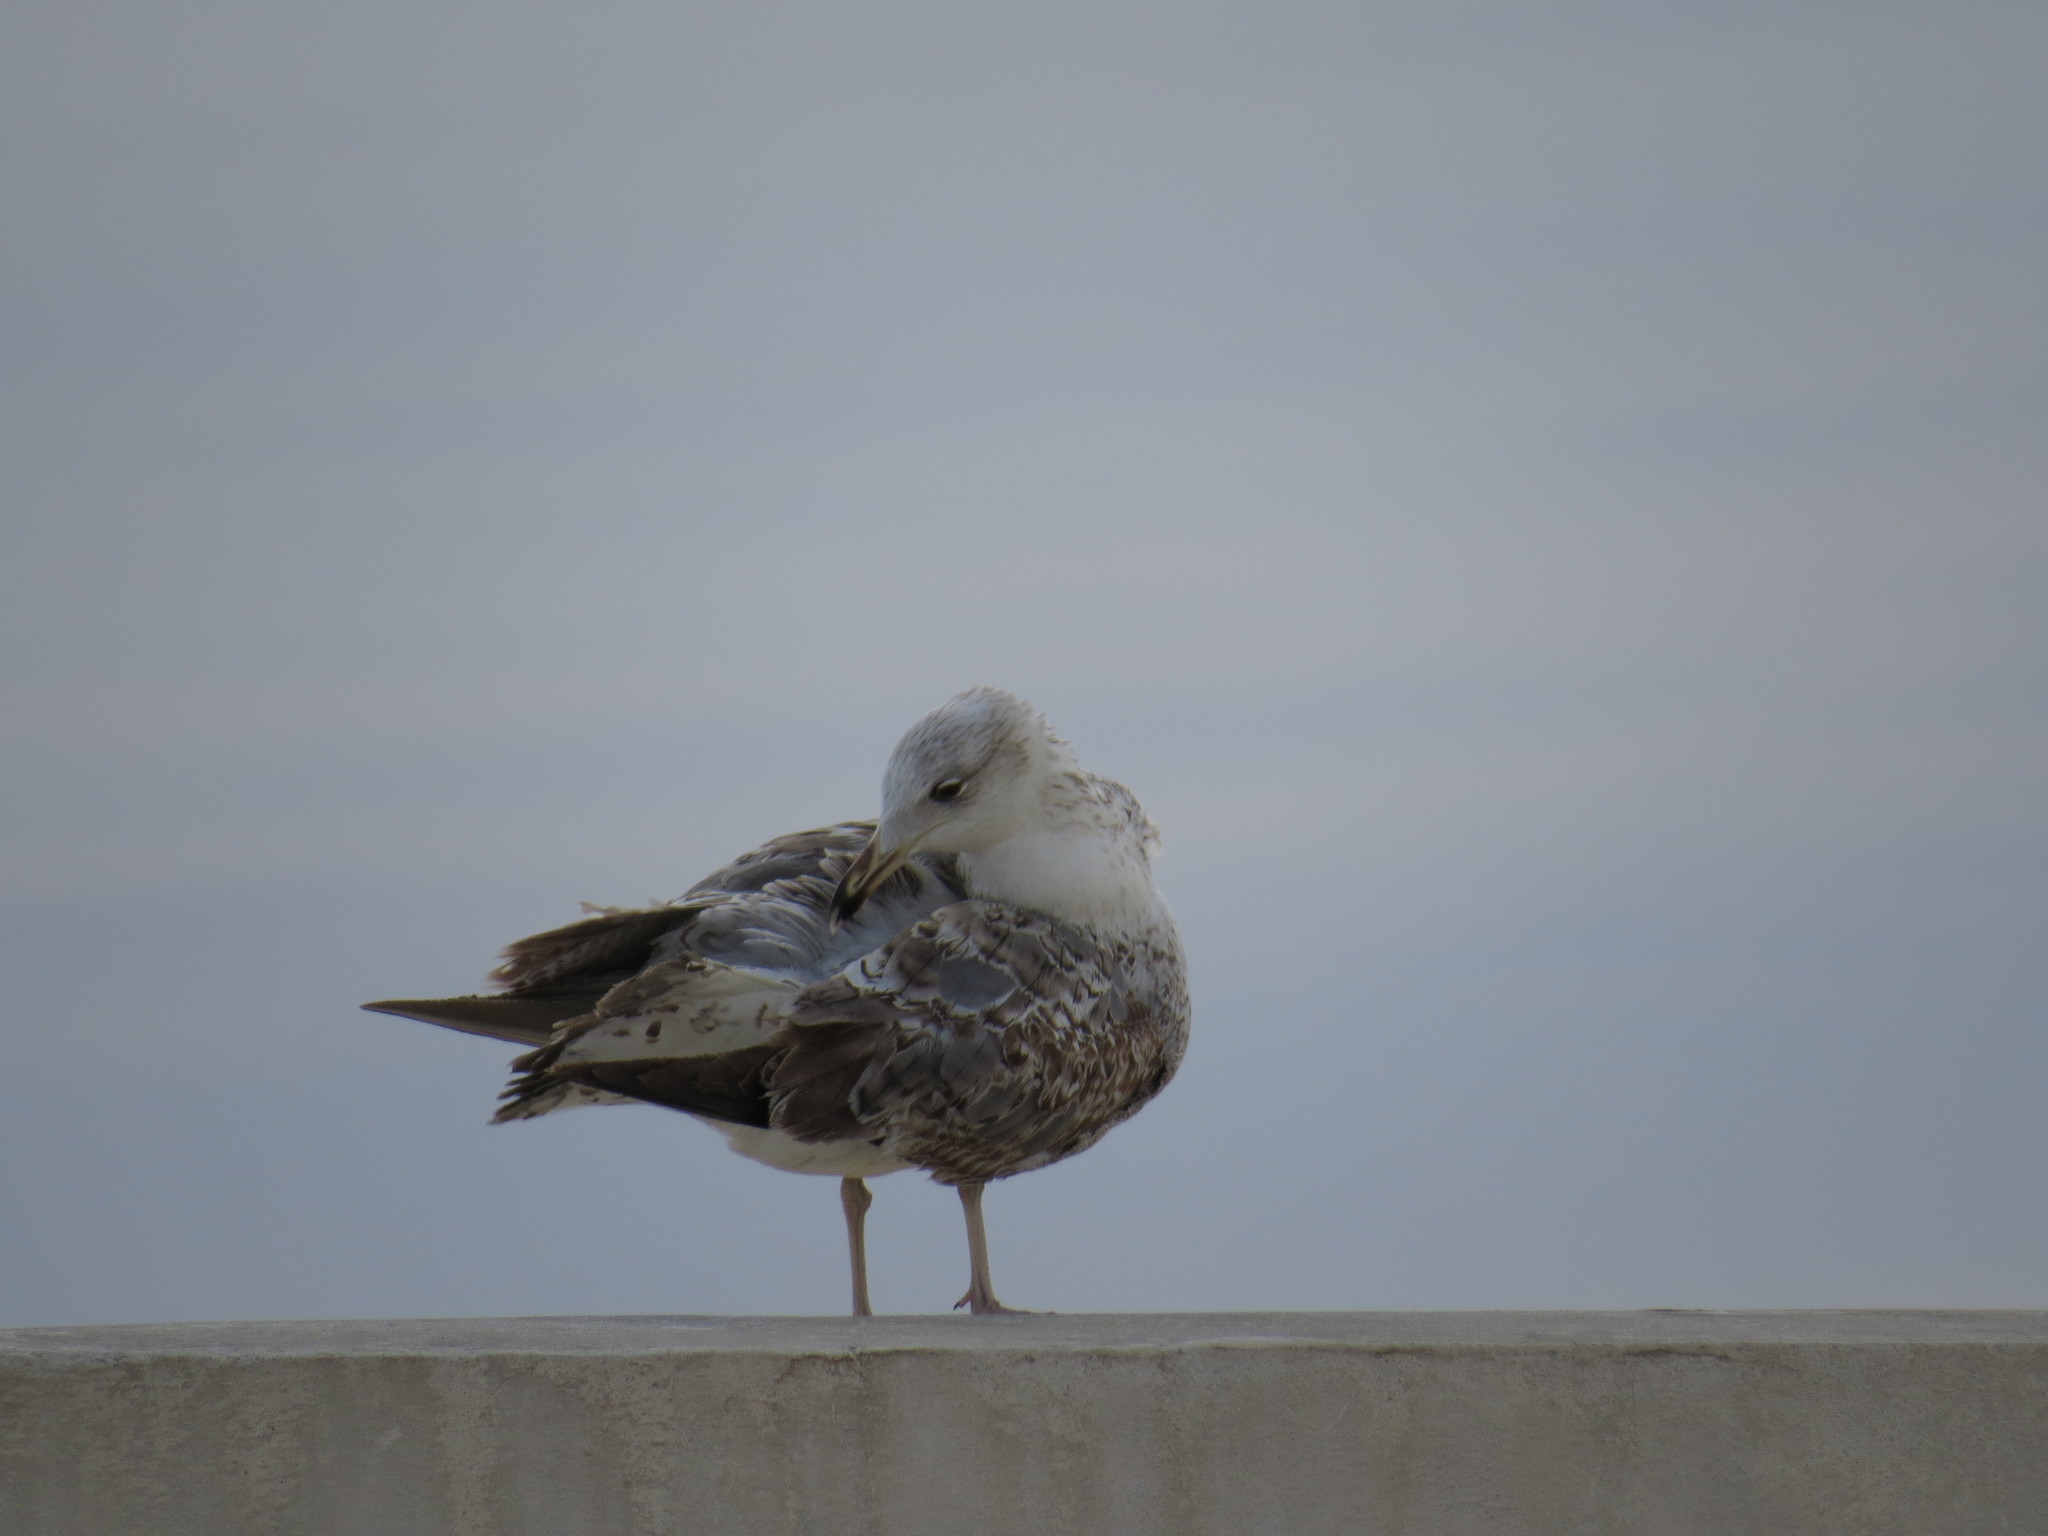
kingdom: Animalia
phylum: Chordata
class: Aves
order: Charadriiformes
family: Laridae
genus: Larus
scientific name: Larus michahellis
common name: Yellow-legged gull
